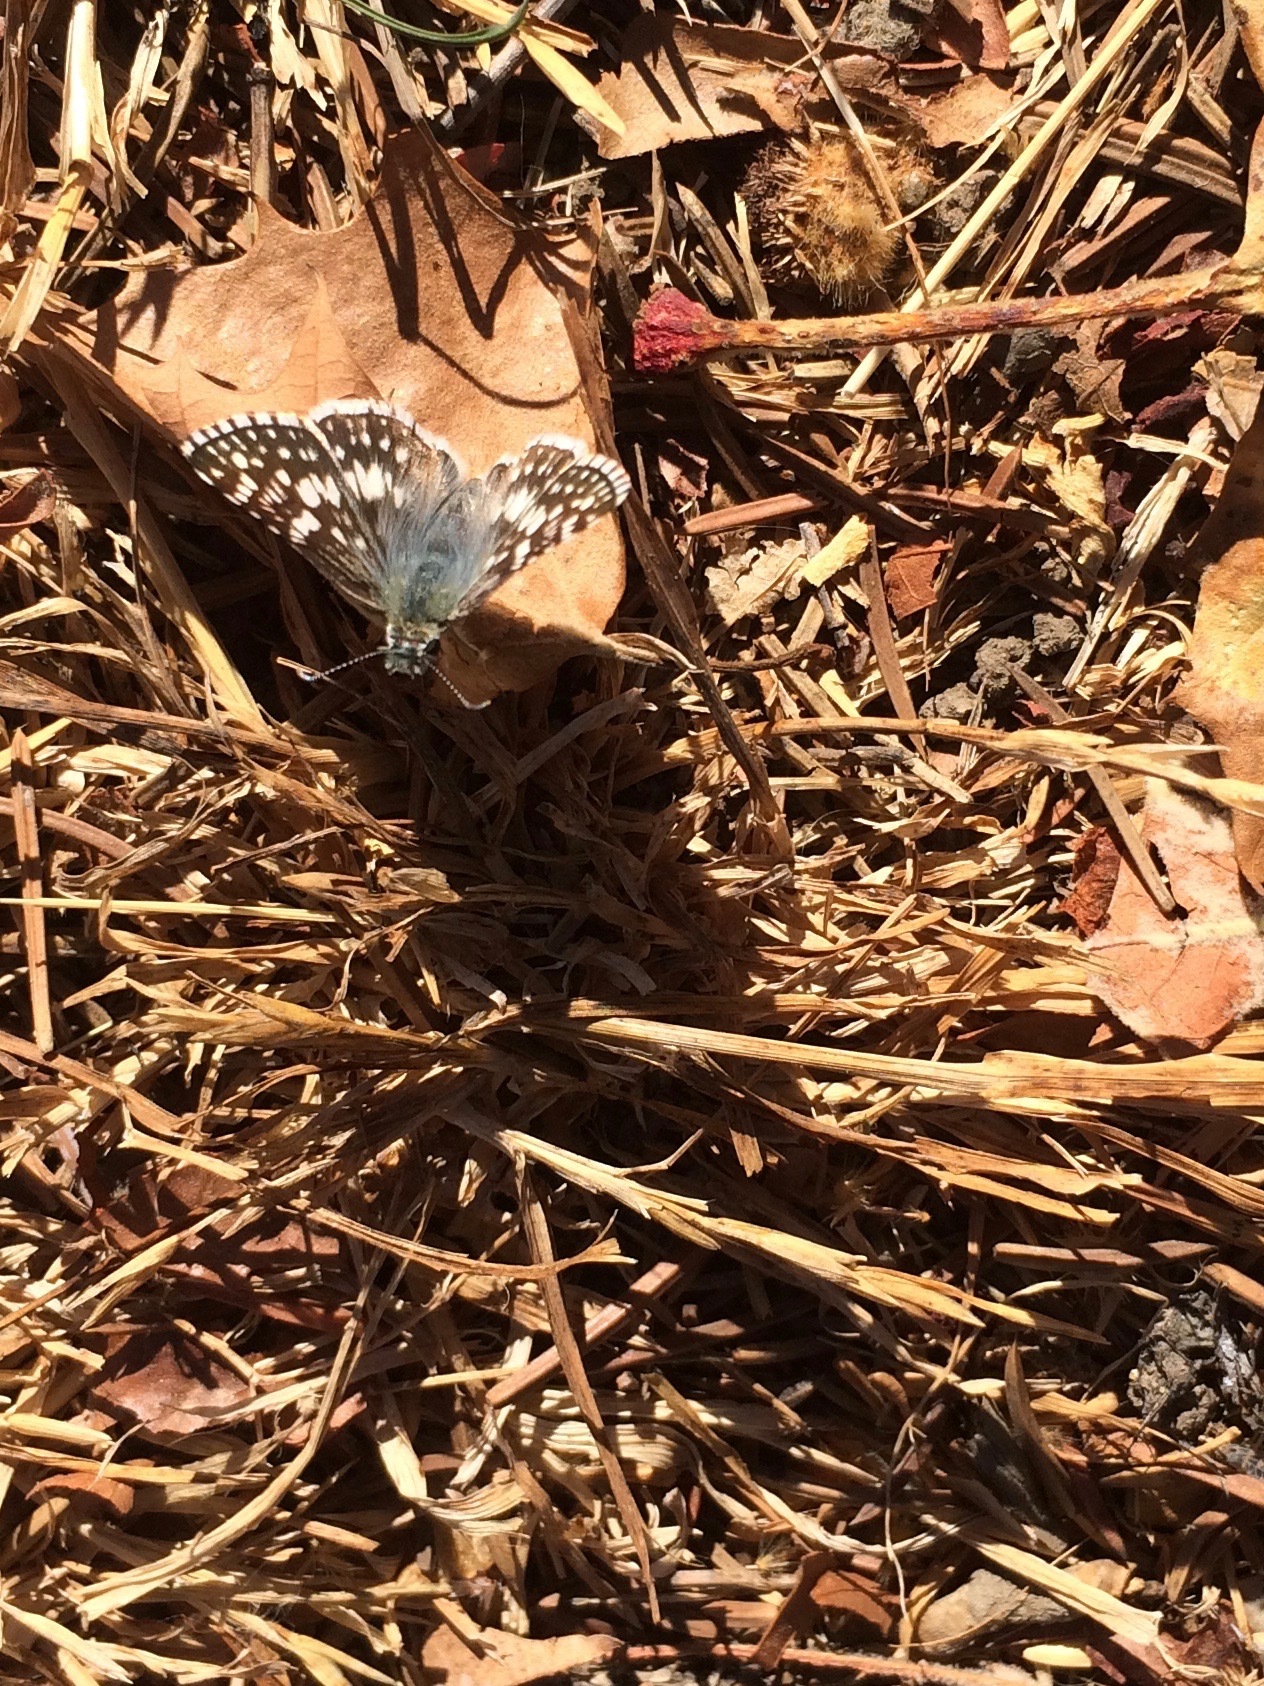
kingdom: Animalia
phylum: Arthropoda
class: Insecta
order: Lepidoptera
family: Hesperiidae
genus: Burnsius
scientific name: Burnsius communis
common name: Common checkered-skipper
